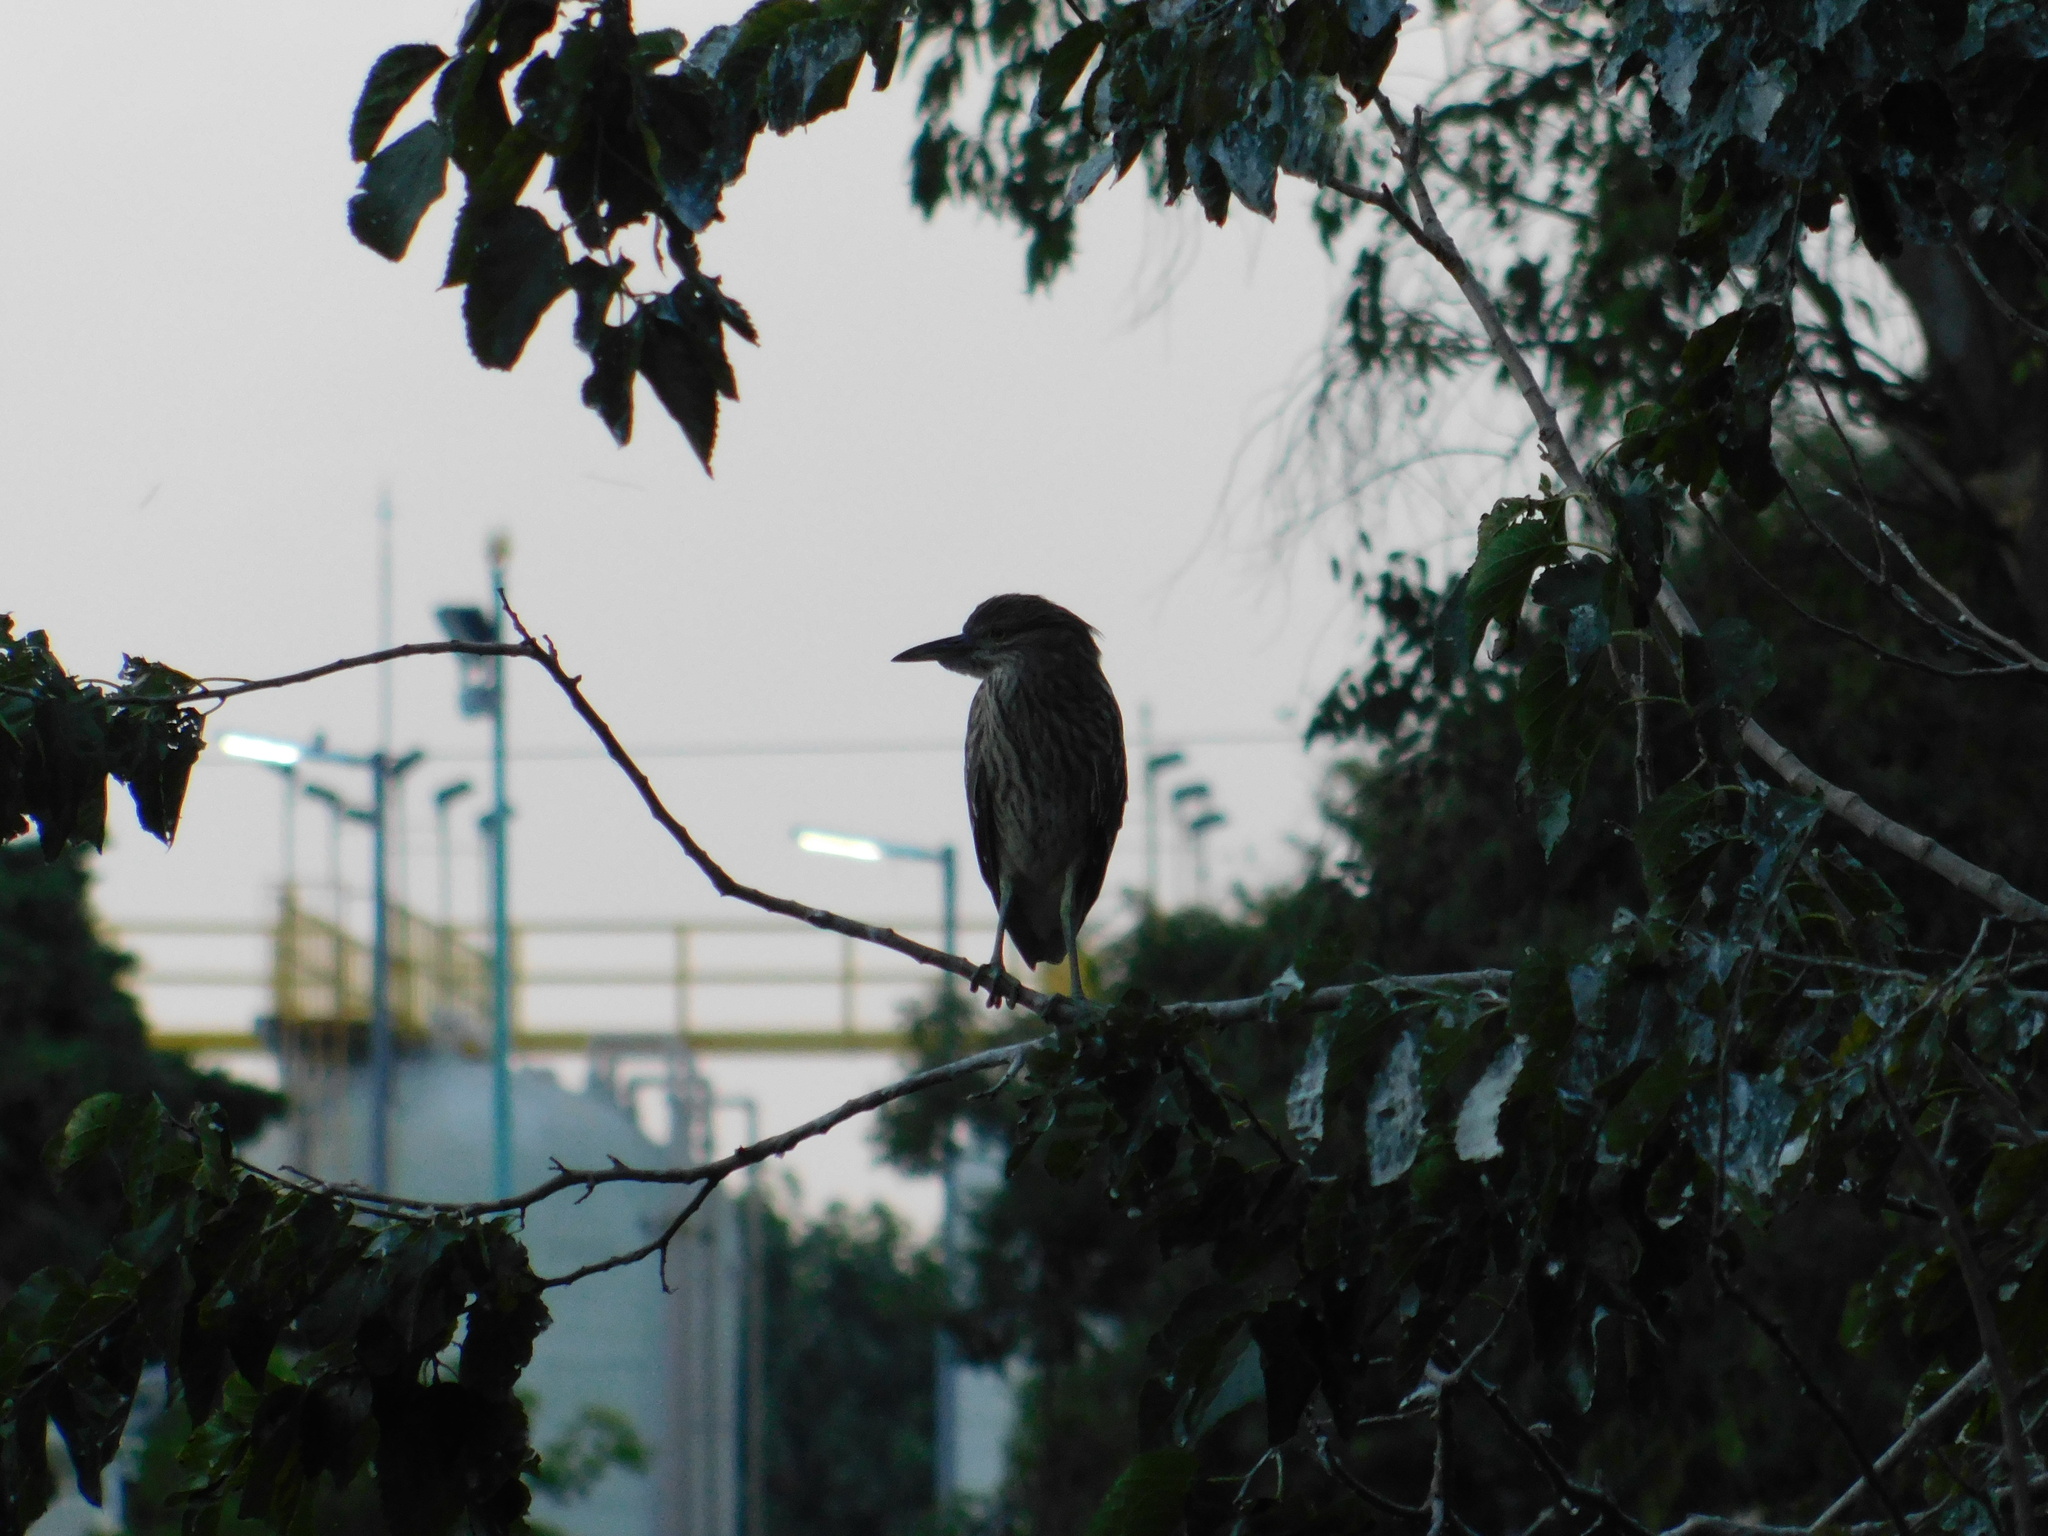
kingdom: Animalia
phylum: Chordata
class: Aves
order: Pelecaniformes
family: Ardeidae
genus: Nycticorax
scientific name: Nycticorax nycticorax
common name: Black-crowned night heron
